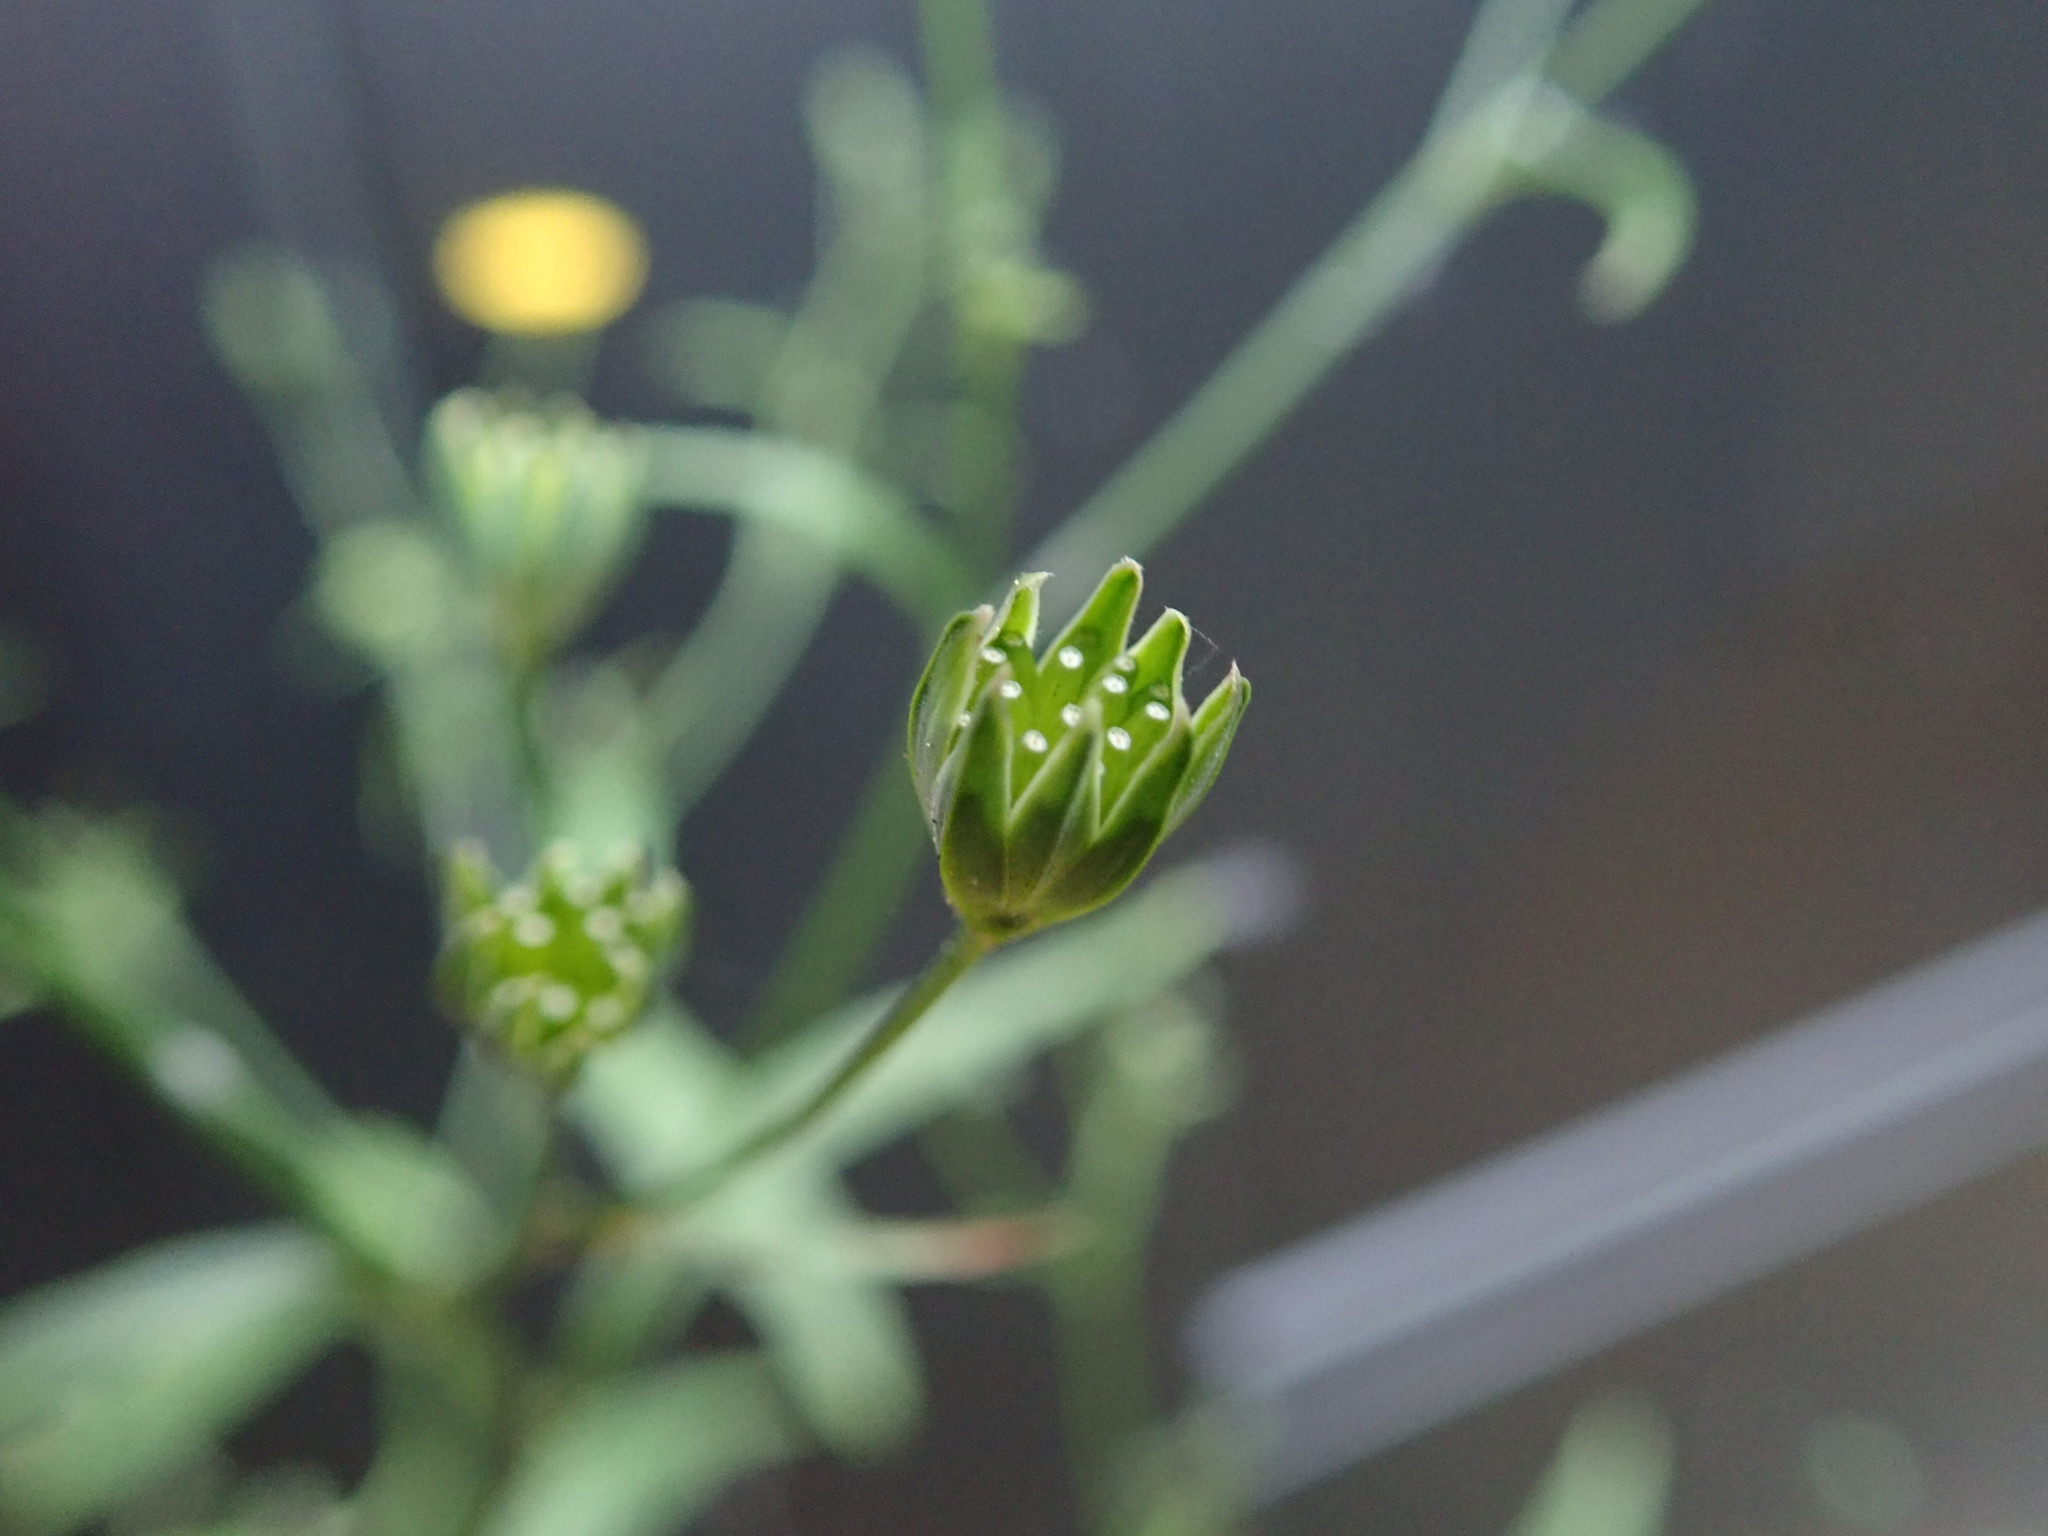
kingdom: Plantae
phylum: Tracheophyta
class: Magnoliopsida
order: Asterales
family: Asteraceae
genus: Lapsana
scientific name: Lapsana communis
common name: Nipplewort
